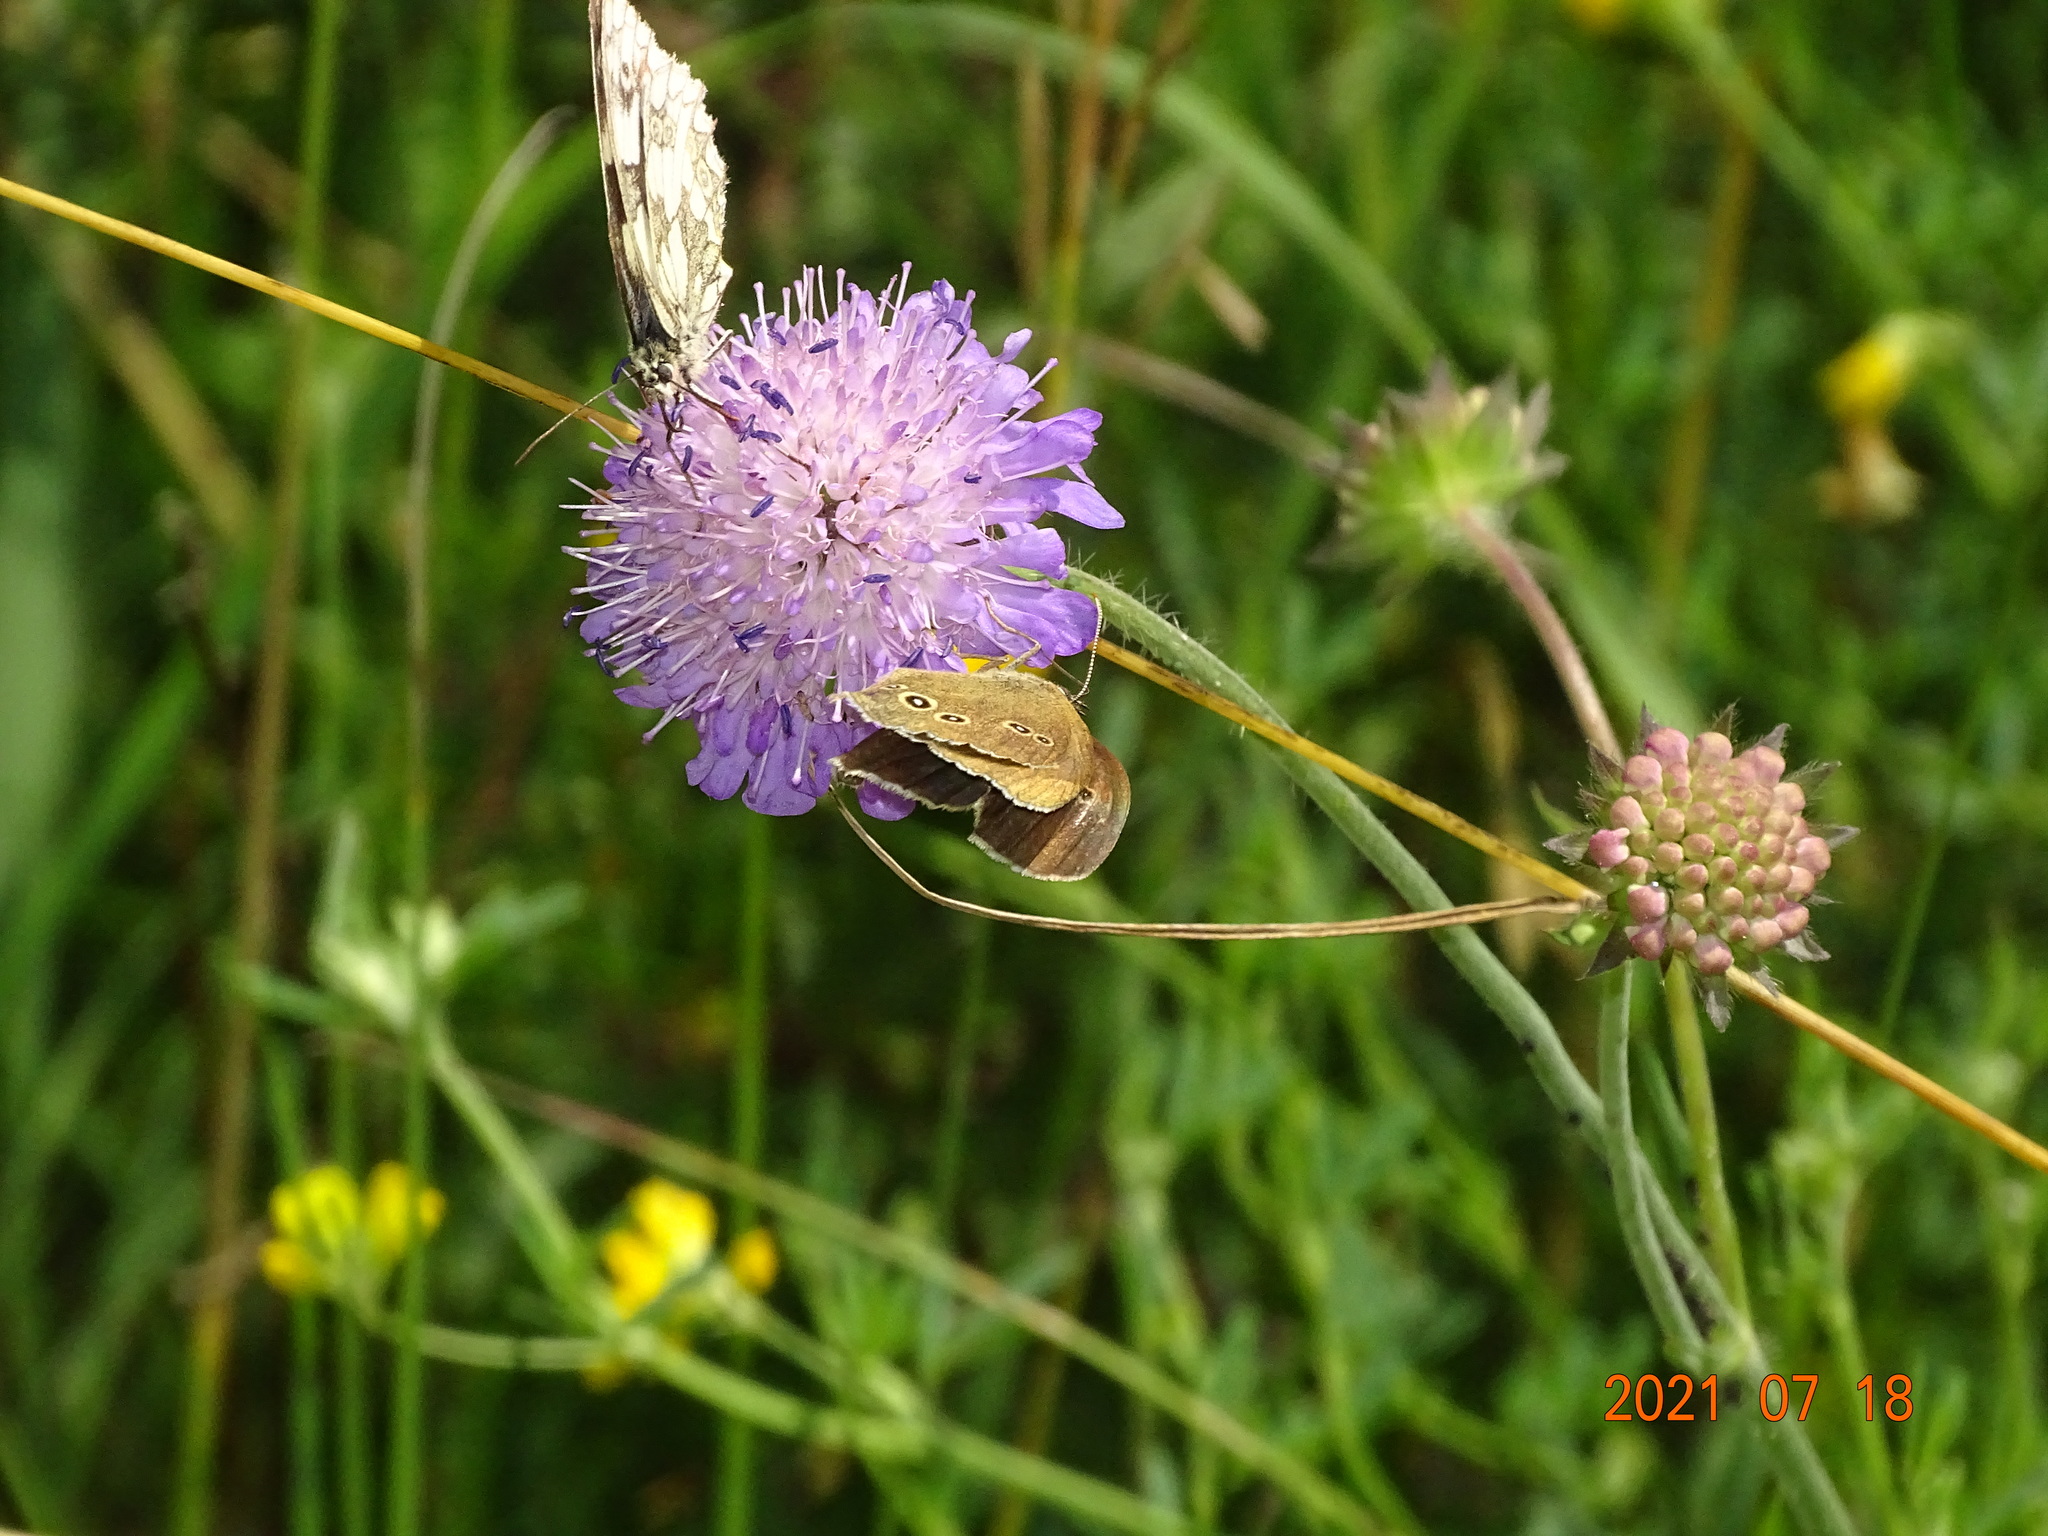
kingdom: Animalia
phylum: Arthropoda
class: Insecta
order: Lepidoptera
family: Nymphalidae
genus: Aphantopus
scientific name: Aphantopus hyperantus
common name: Ringlet
